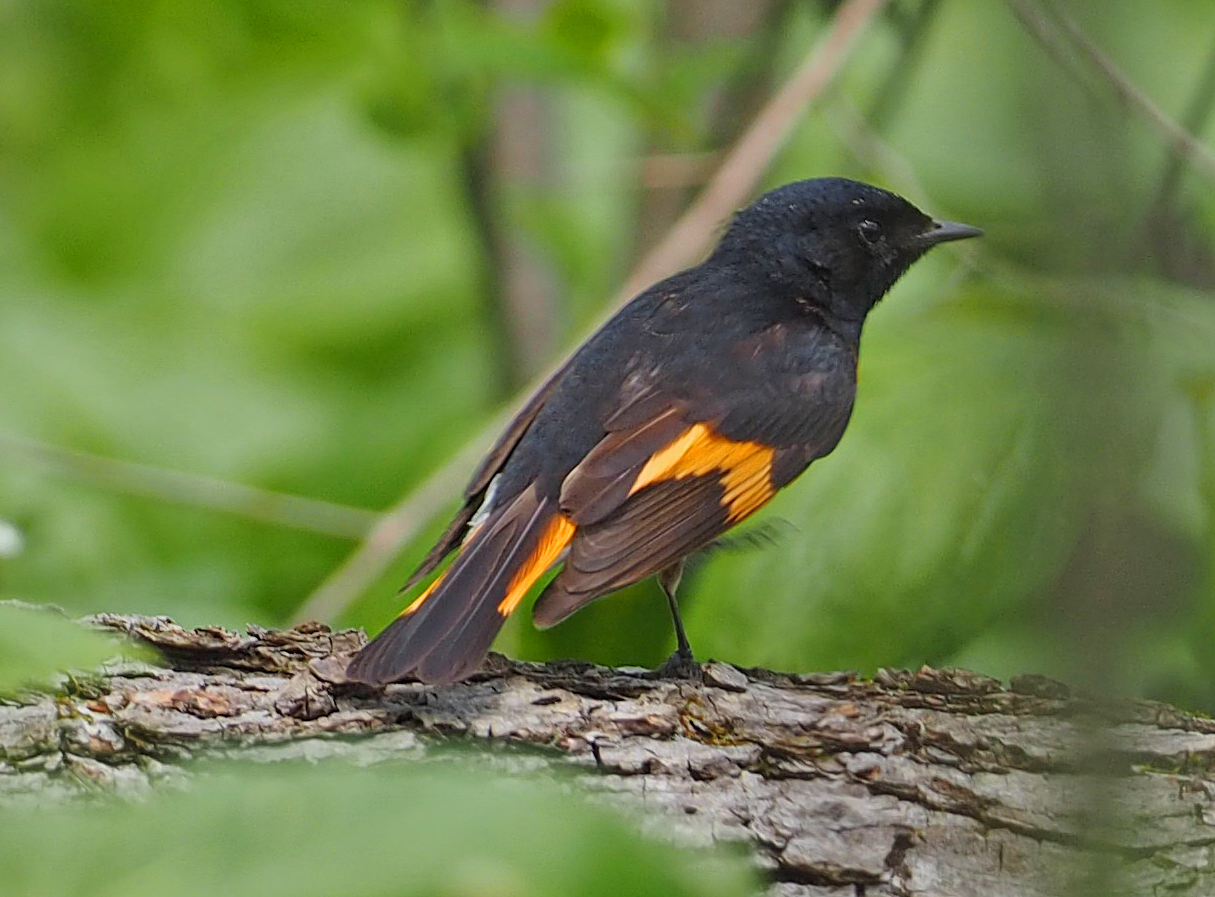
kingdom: Animalia
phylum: Chordata
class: Aves
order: Passeriformes
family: Parulidae
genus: Setophaga
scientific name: Setophaga ruticilla
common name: American redstart
